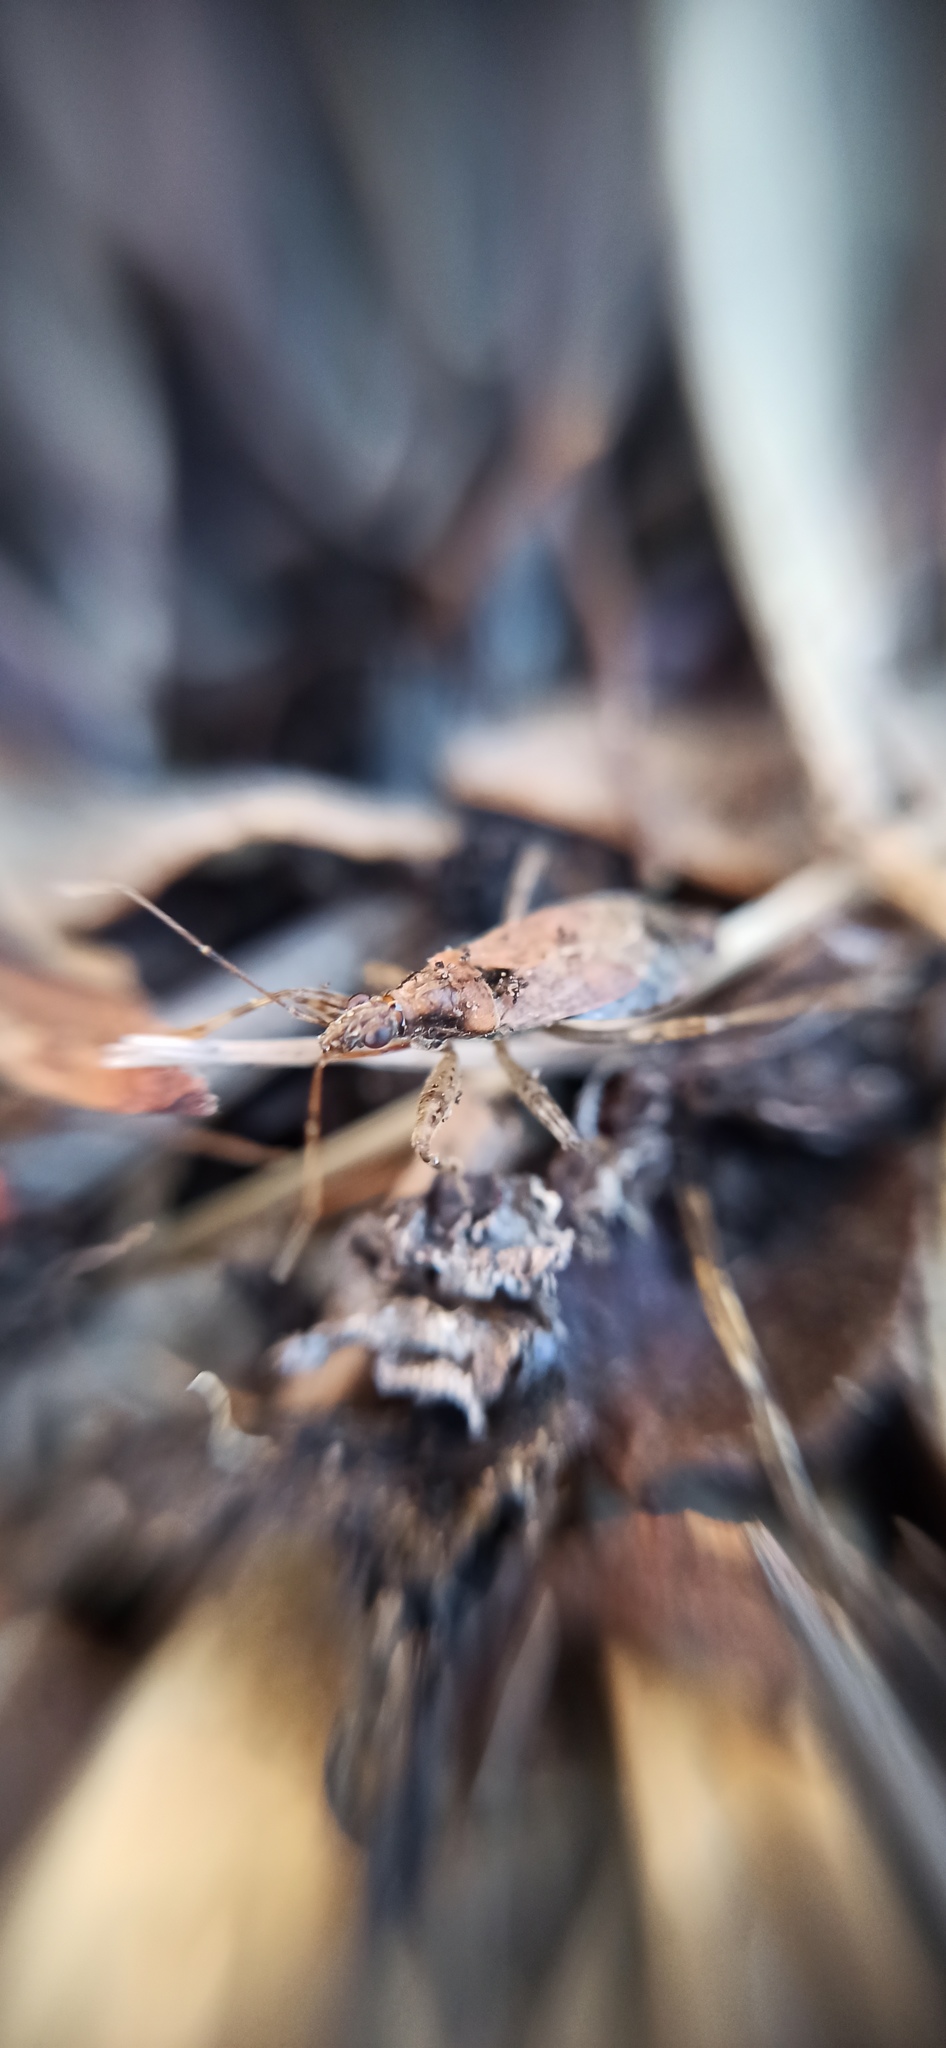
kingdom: Animalia
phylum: Arthropoda
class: Insecta
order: Hemiptera
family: Nabidae
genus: Himacerus
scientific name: Himacerus mirmicoides
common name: Ant damsel bug
